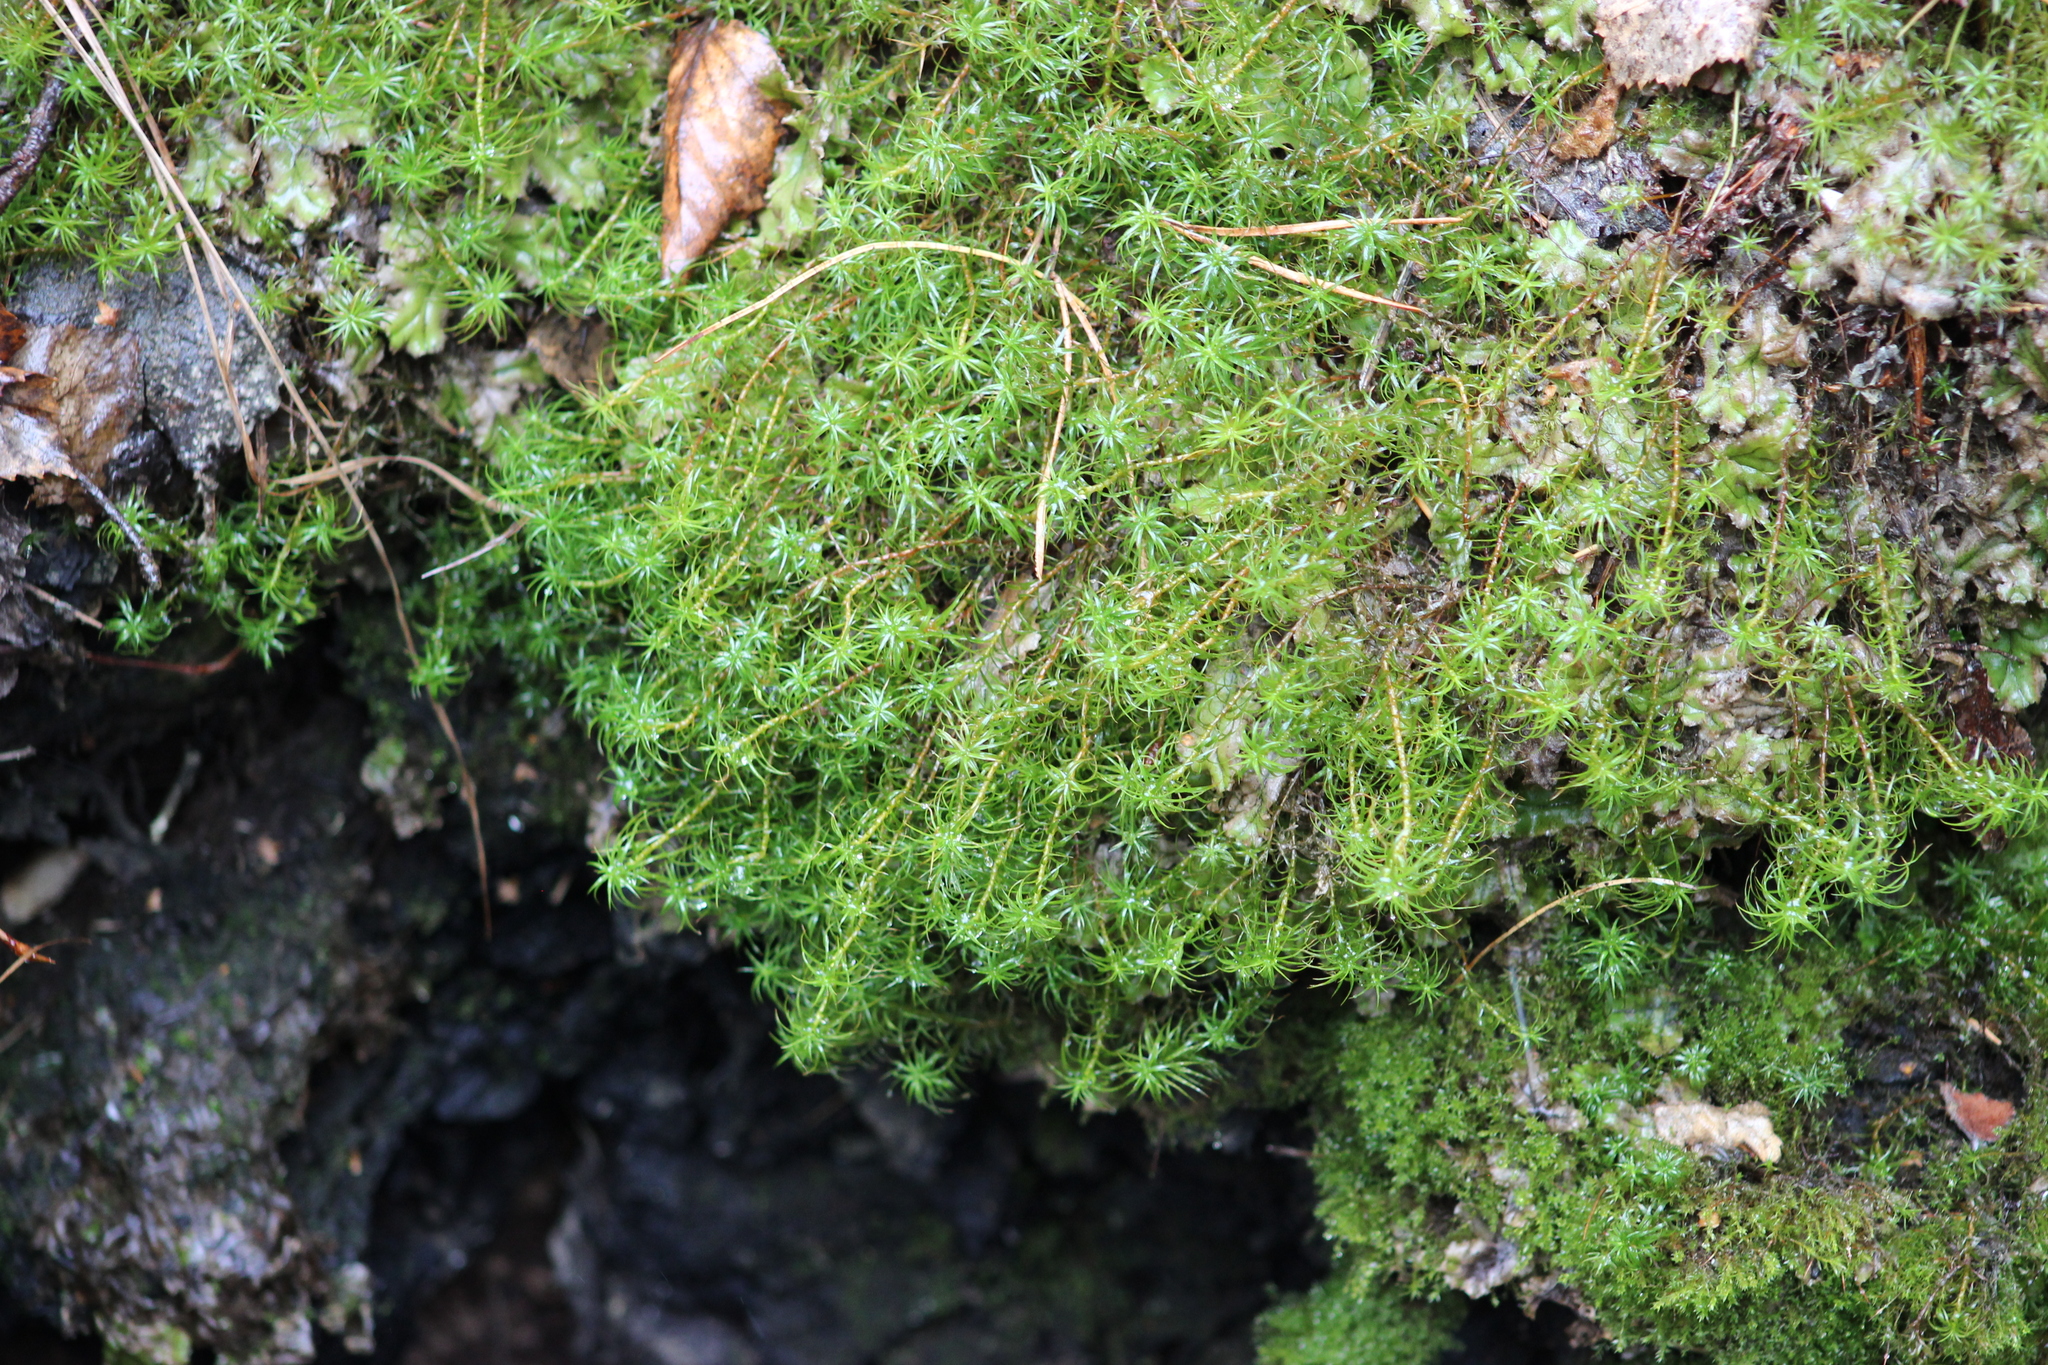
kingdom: Plantae
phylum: Bryophyta
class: Polytrichopsida
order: Polytrichales
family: Polytrichaceae
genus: Polytrichum
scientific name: Polytrichum commune
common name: Common haircap
